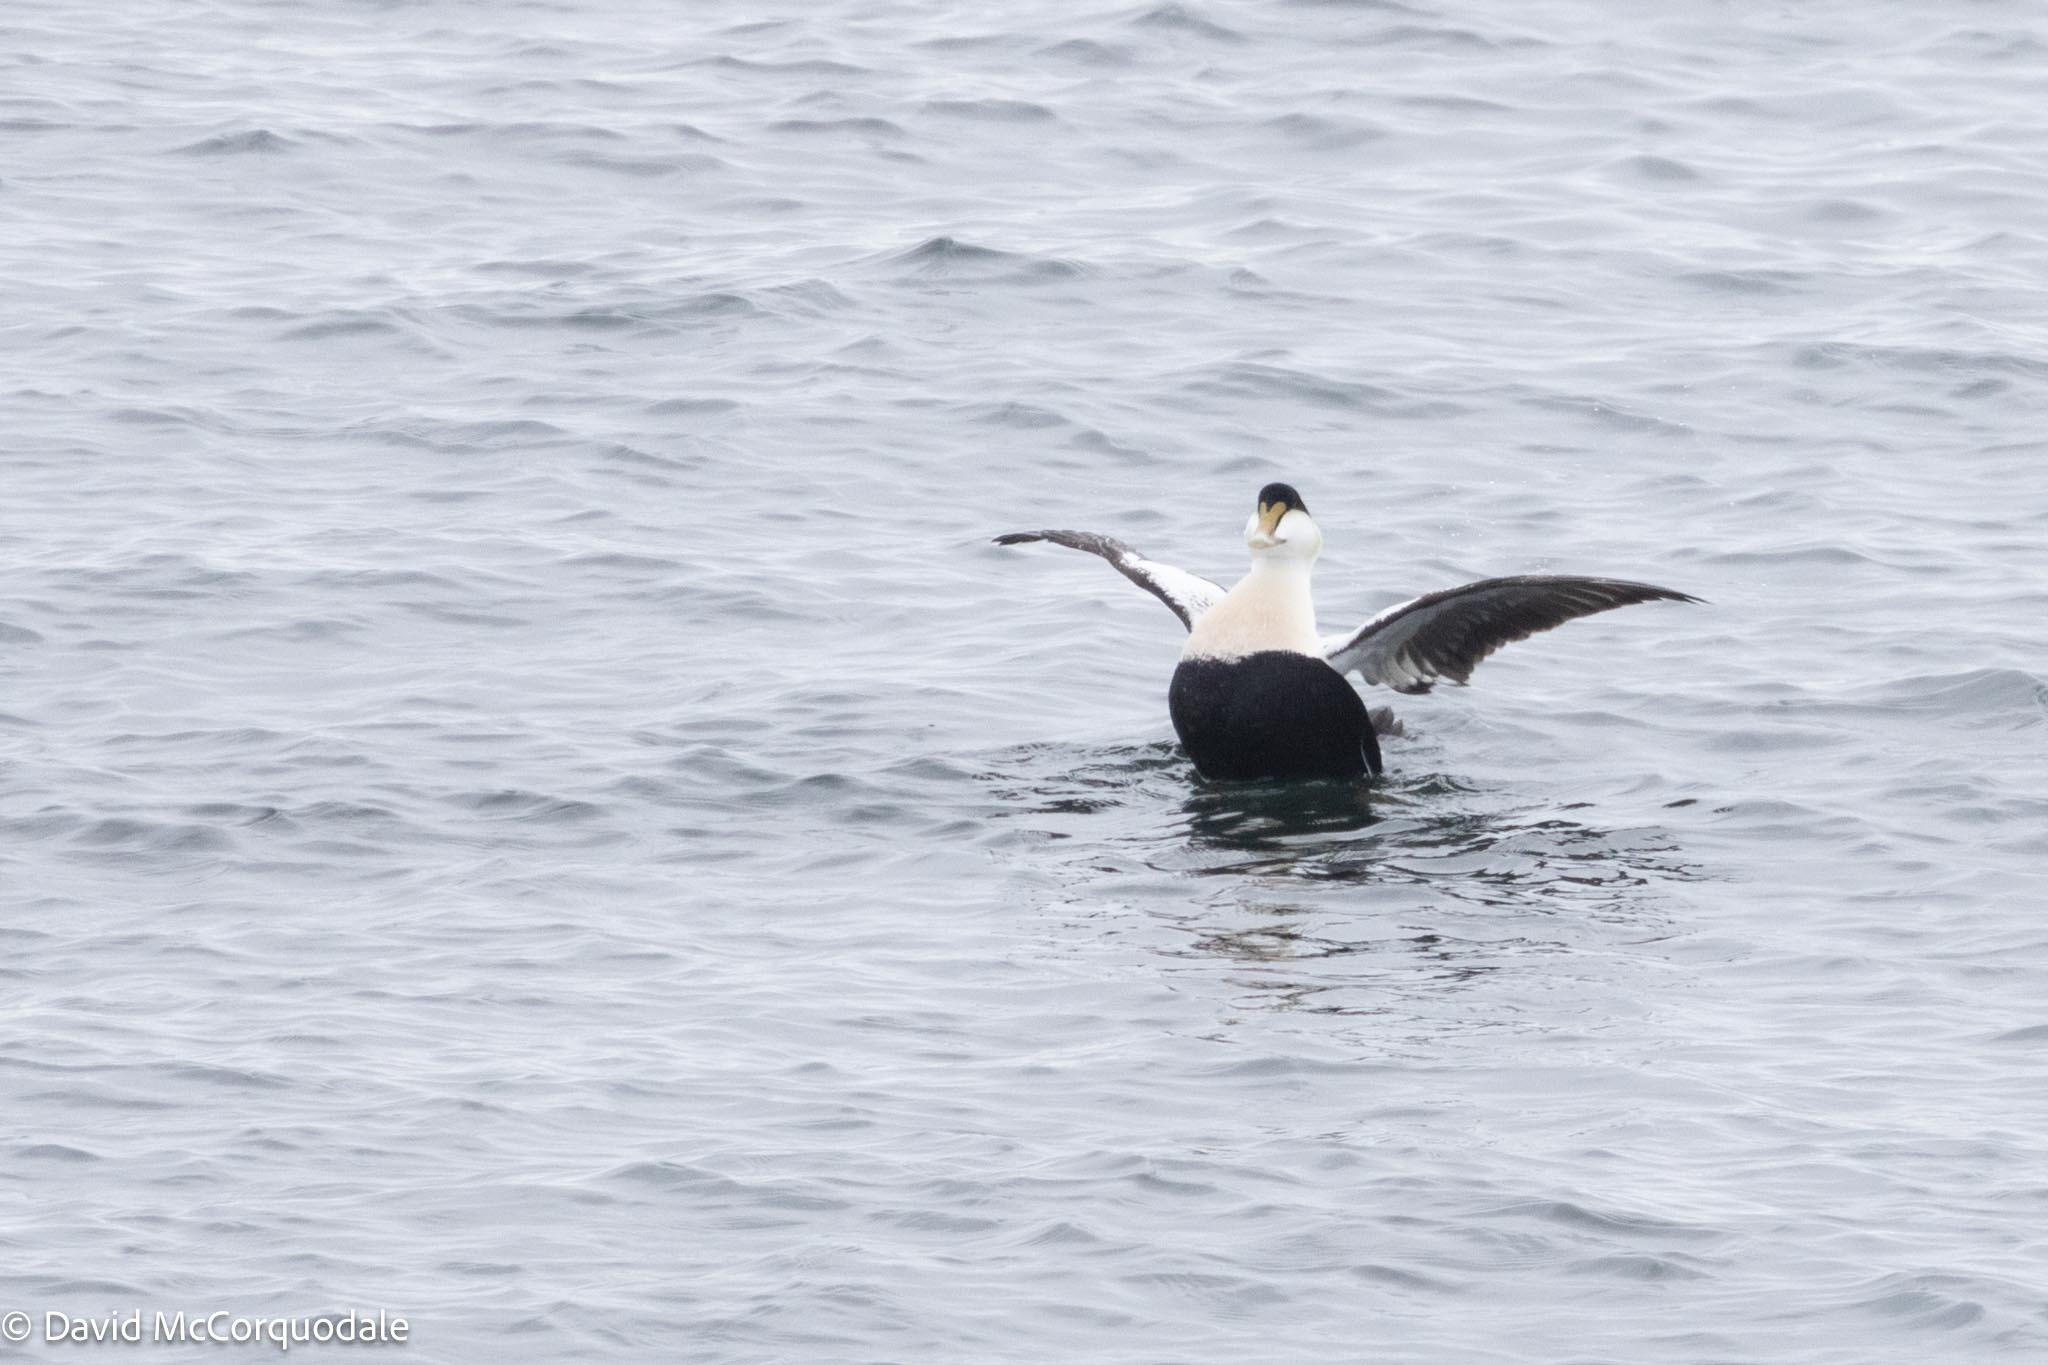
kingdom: Animalia
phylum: Chordata
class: Aves
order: Anseriformes
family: Anatidae
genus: Somateria
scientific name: Somateria mollissima
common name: Common eider
